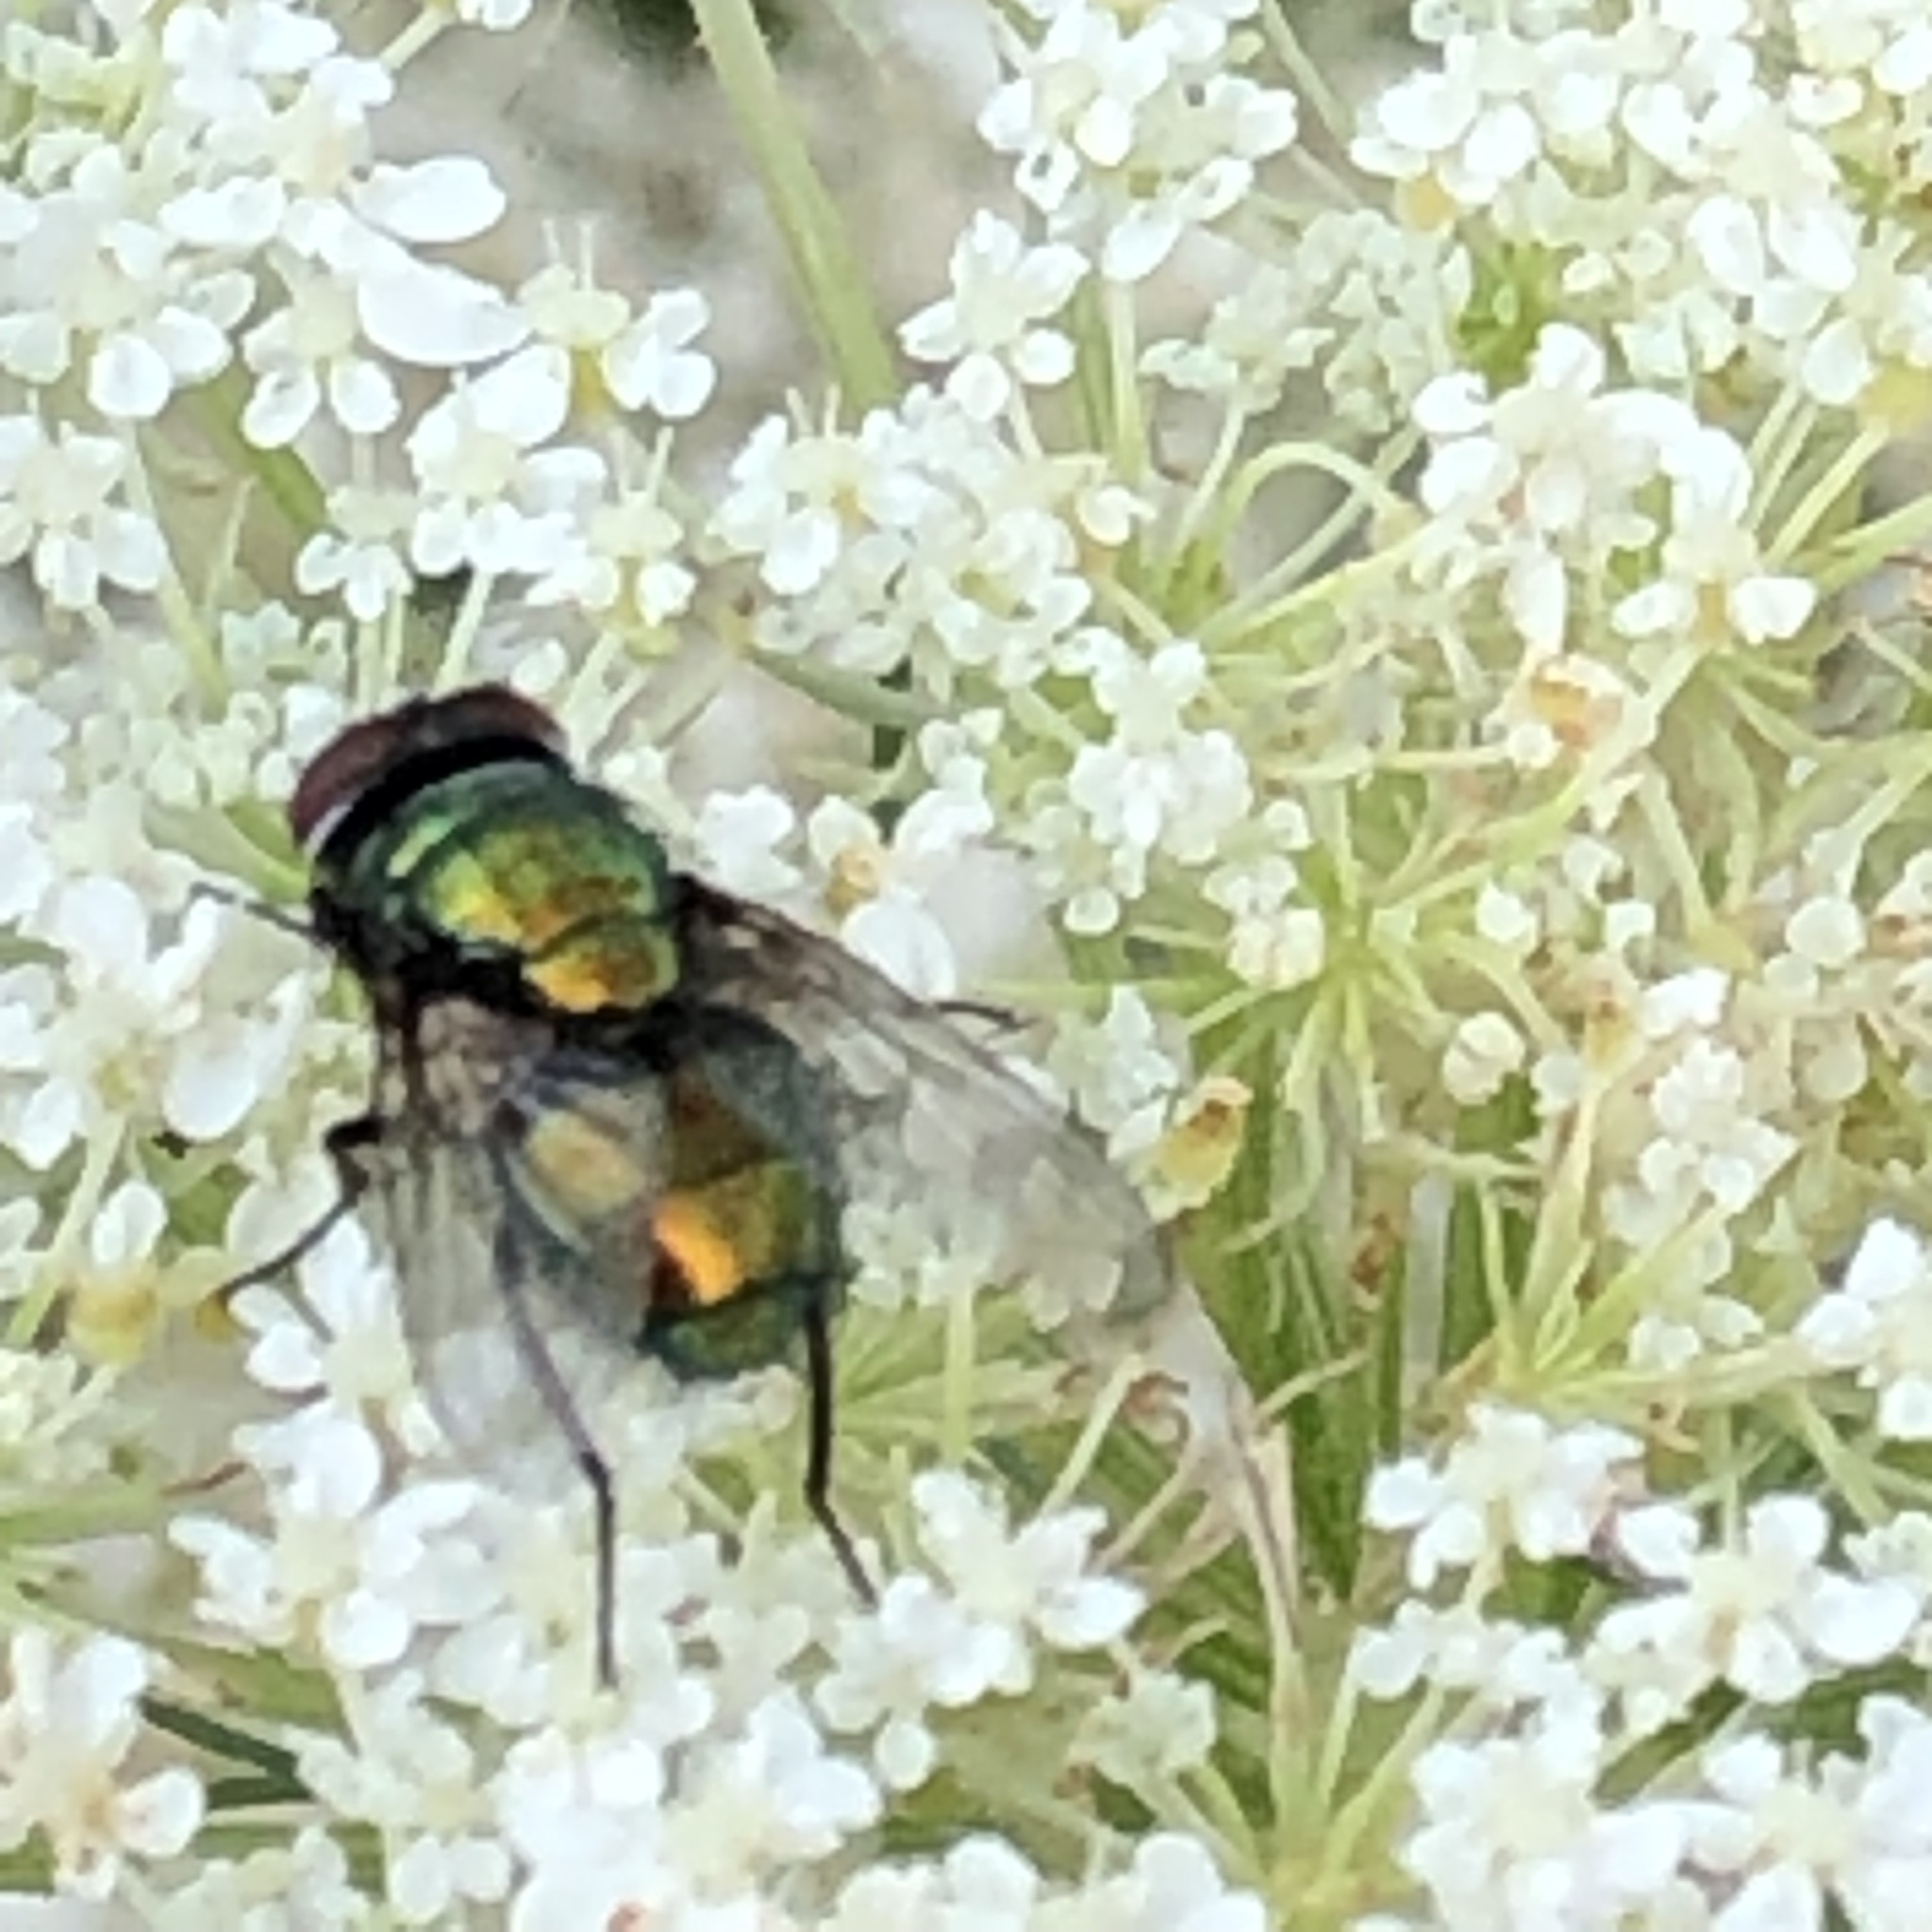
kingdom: Animalia
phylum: Arthropoda
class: Insecta
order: Diptera
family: Calliphoridae
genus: Lucilia
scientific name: Lucilia
